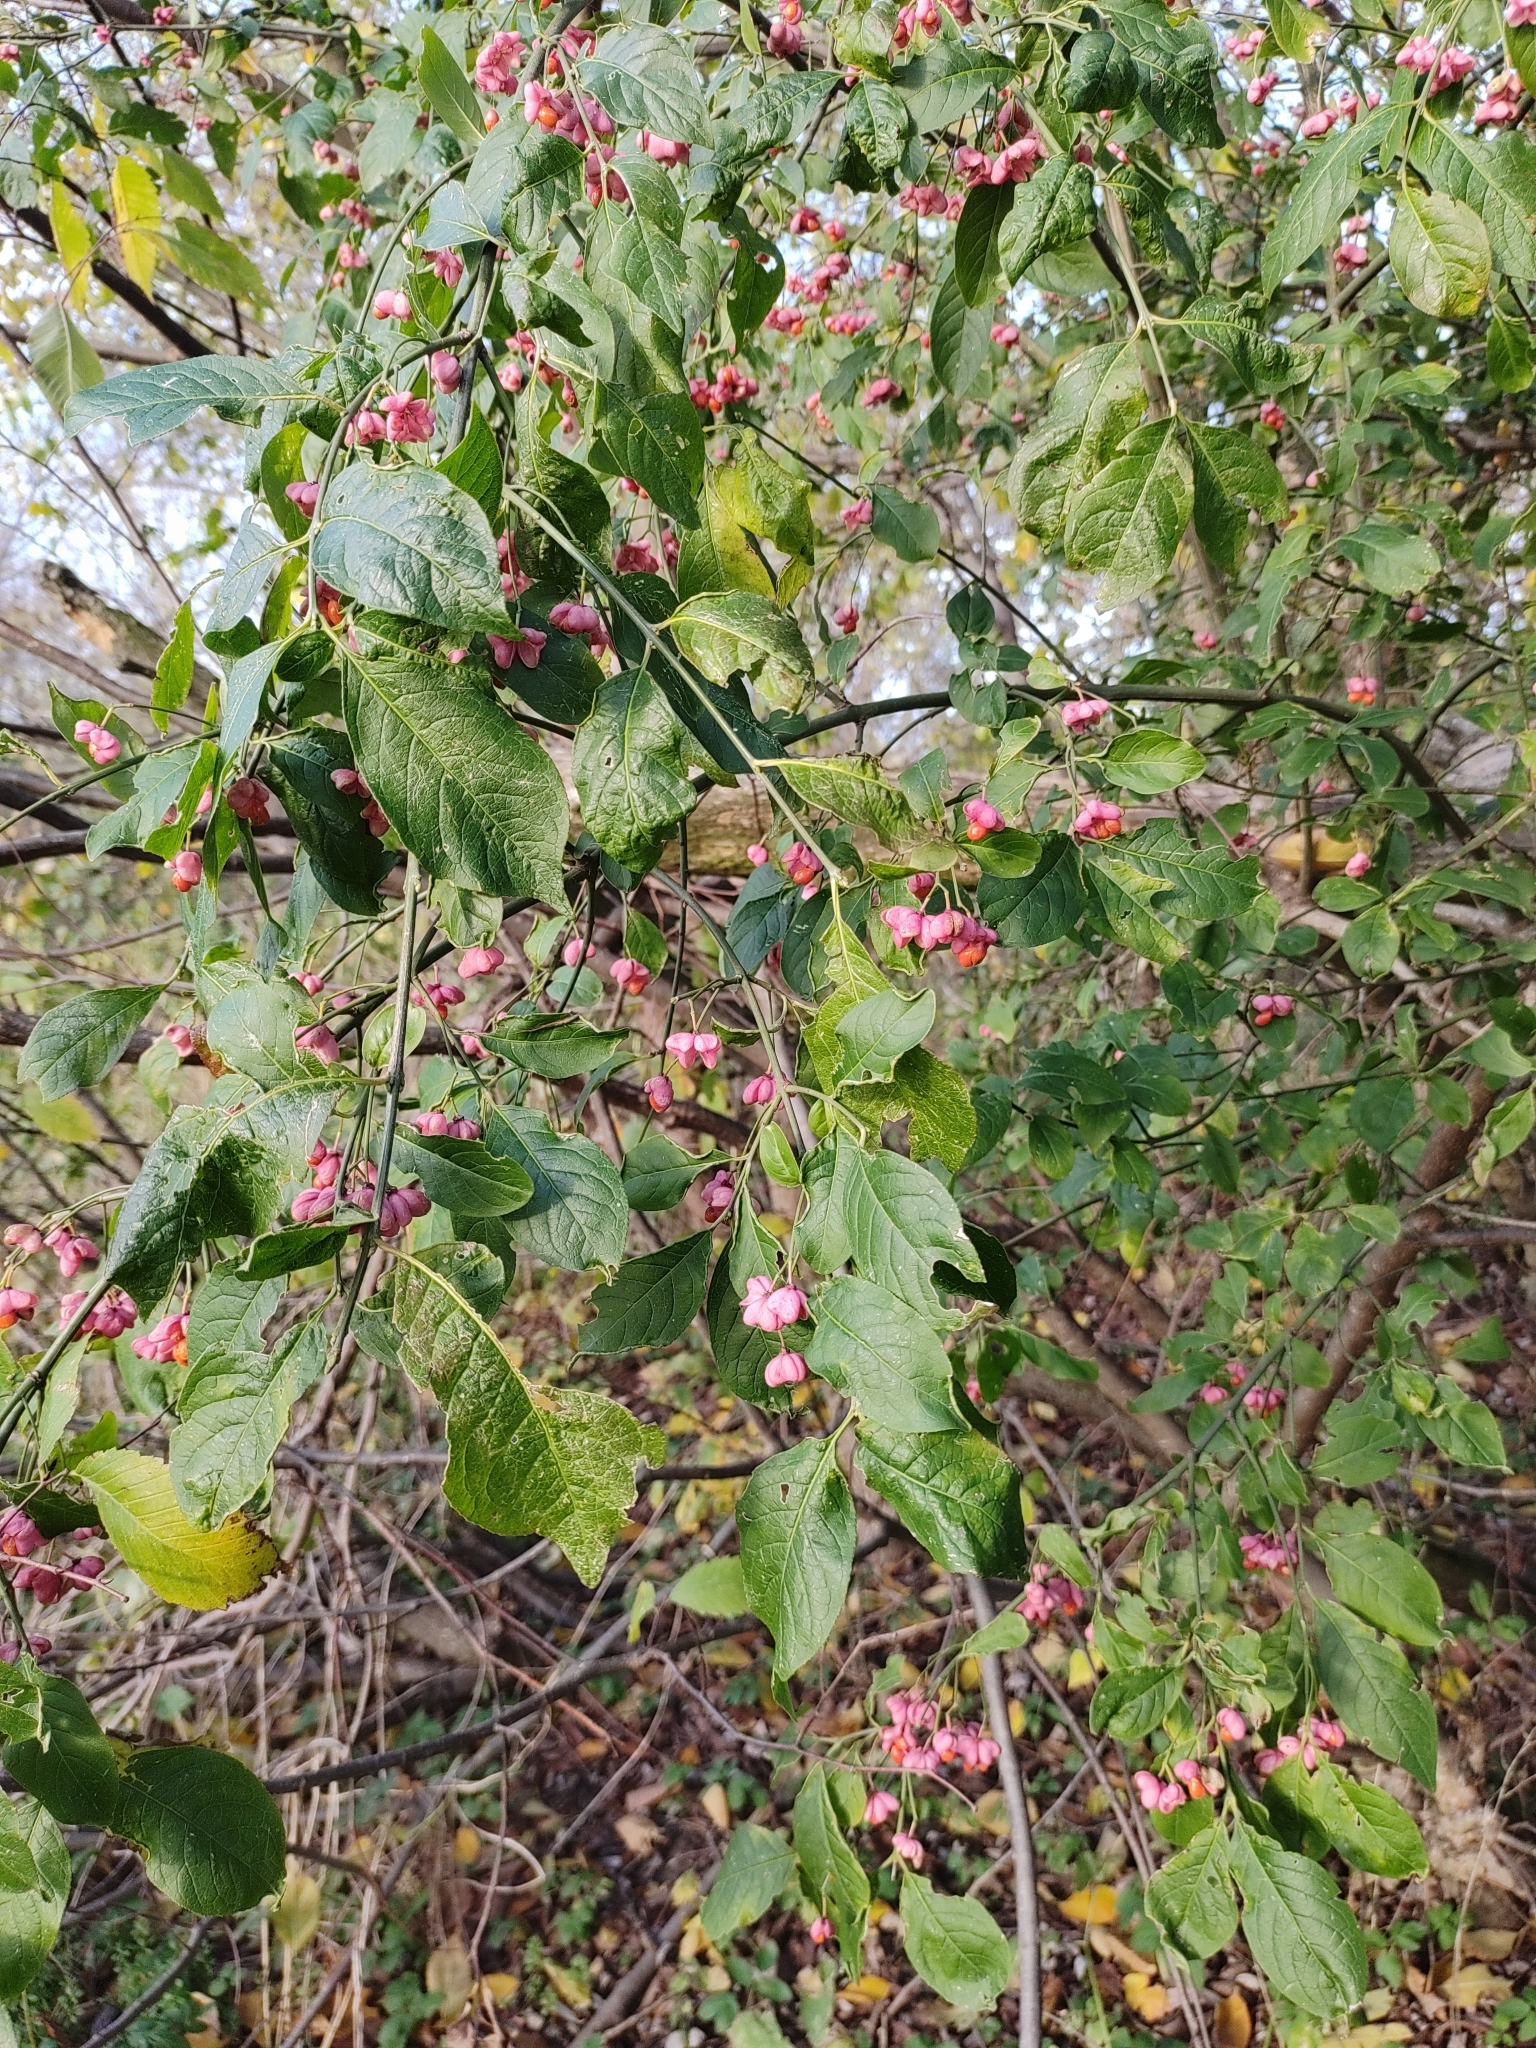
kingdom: Plantae
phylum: Tracheophyta
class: Magnoliopsida
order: Celastrales
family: Celastraceae
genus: Euonymus
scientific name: Euonymus europaeus
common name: Spindle
